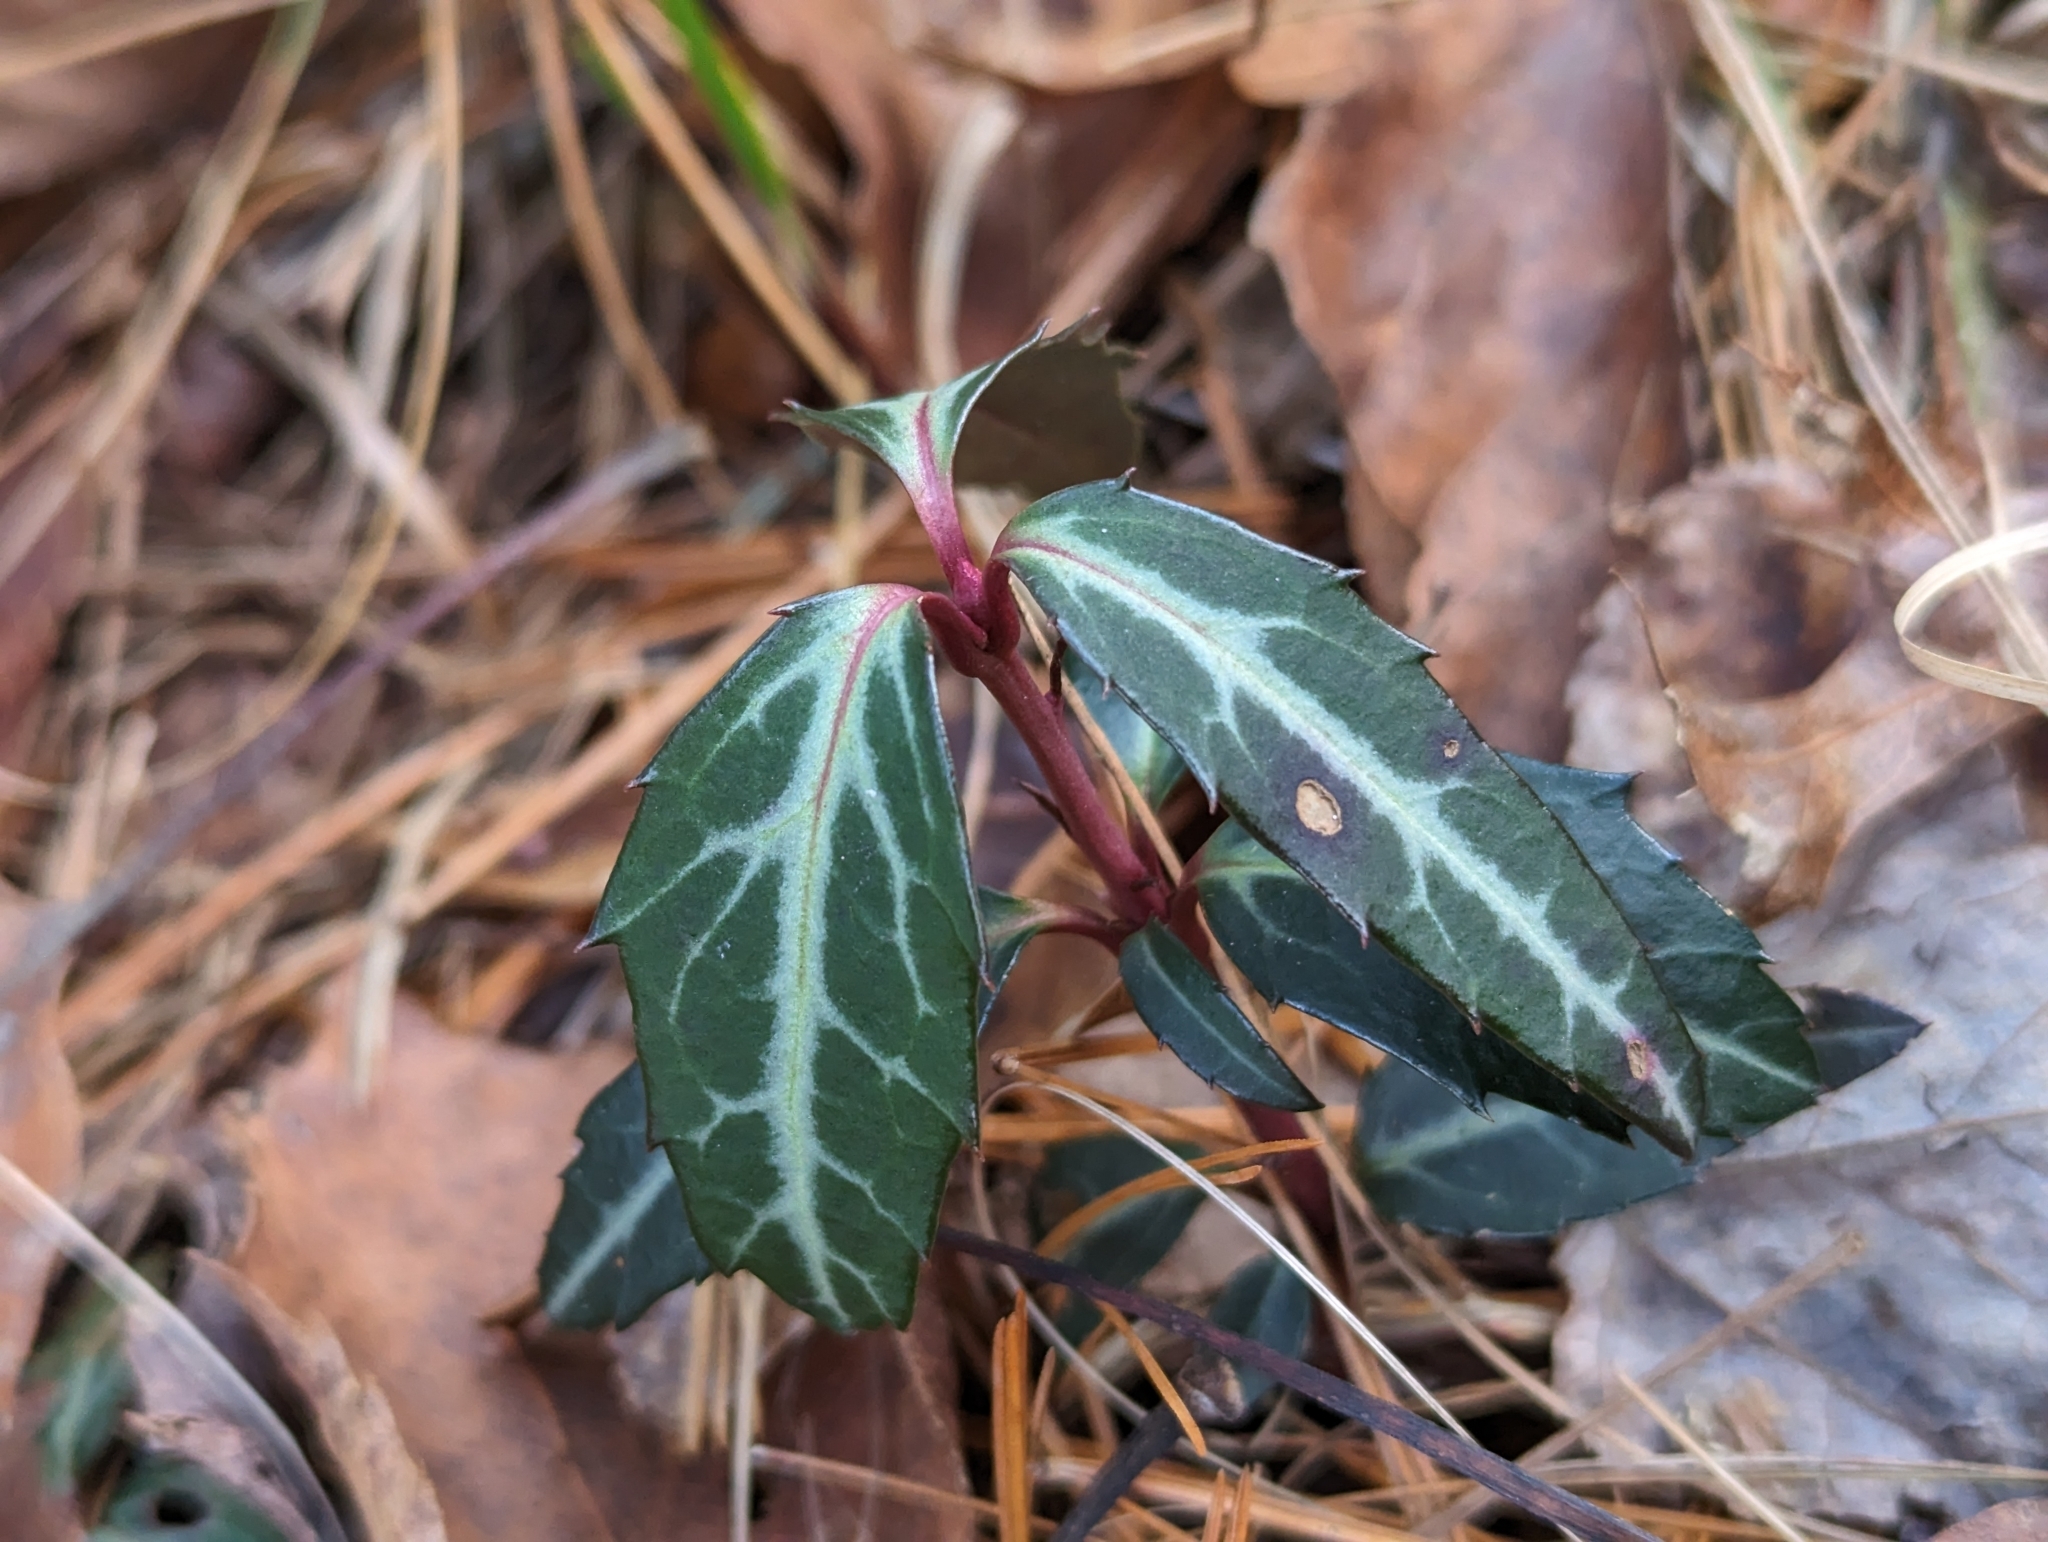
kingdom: Plantae
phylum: Tracheophyta
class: Magnoliopsida
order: Ericales
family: Ericaceae
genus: Chimaphila
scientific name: Chimaphila maculata
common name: Spotted pipsissewa
